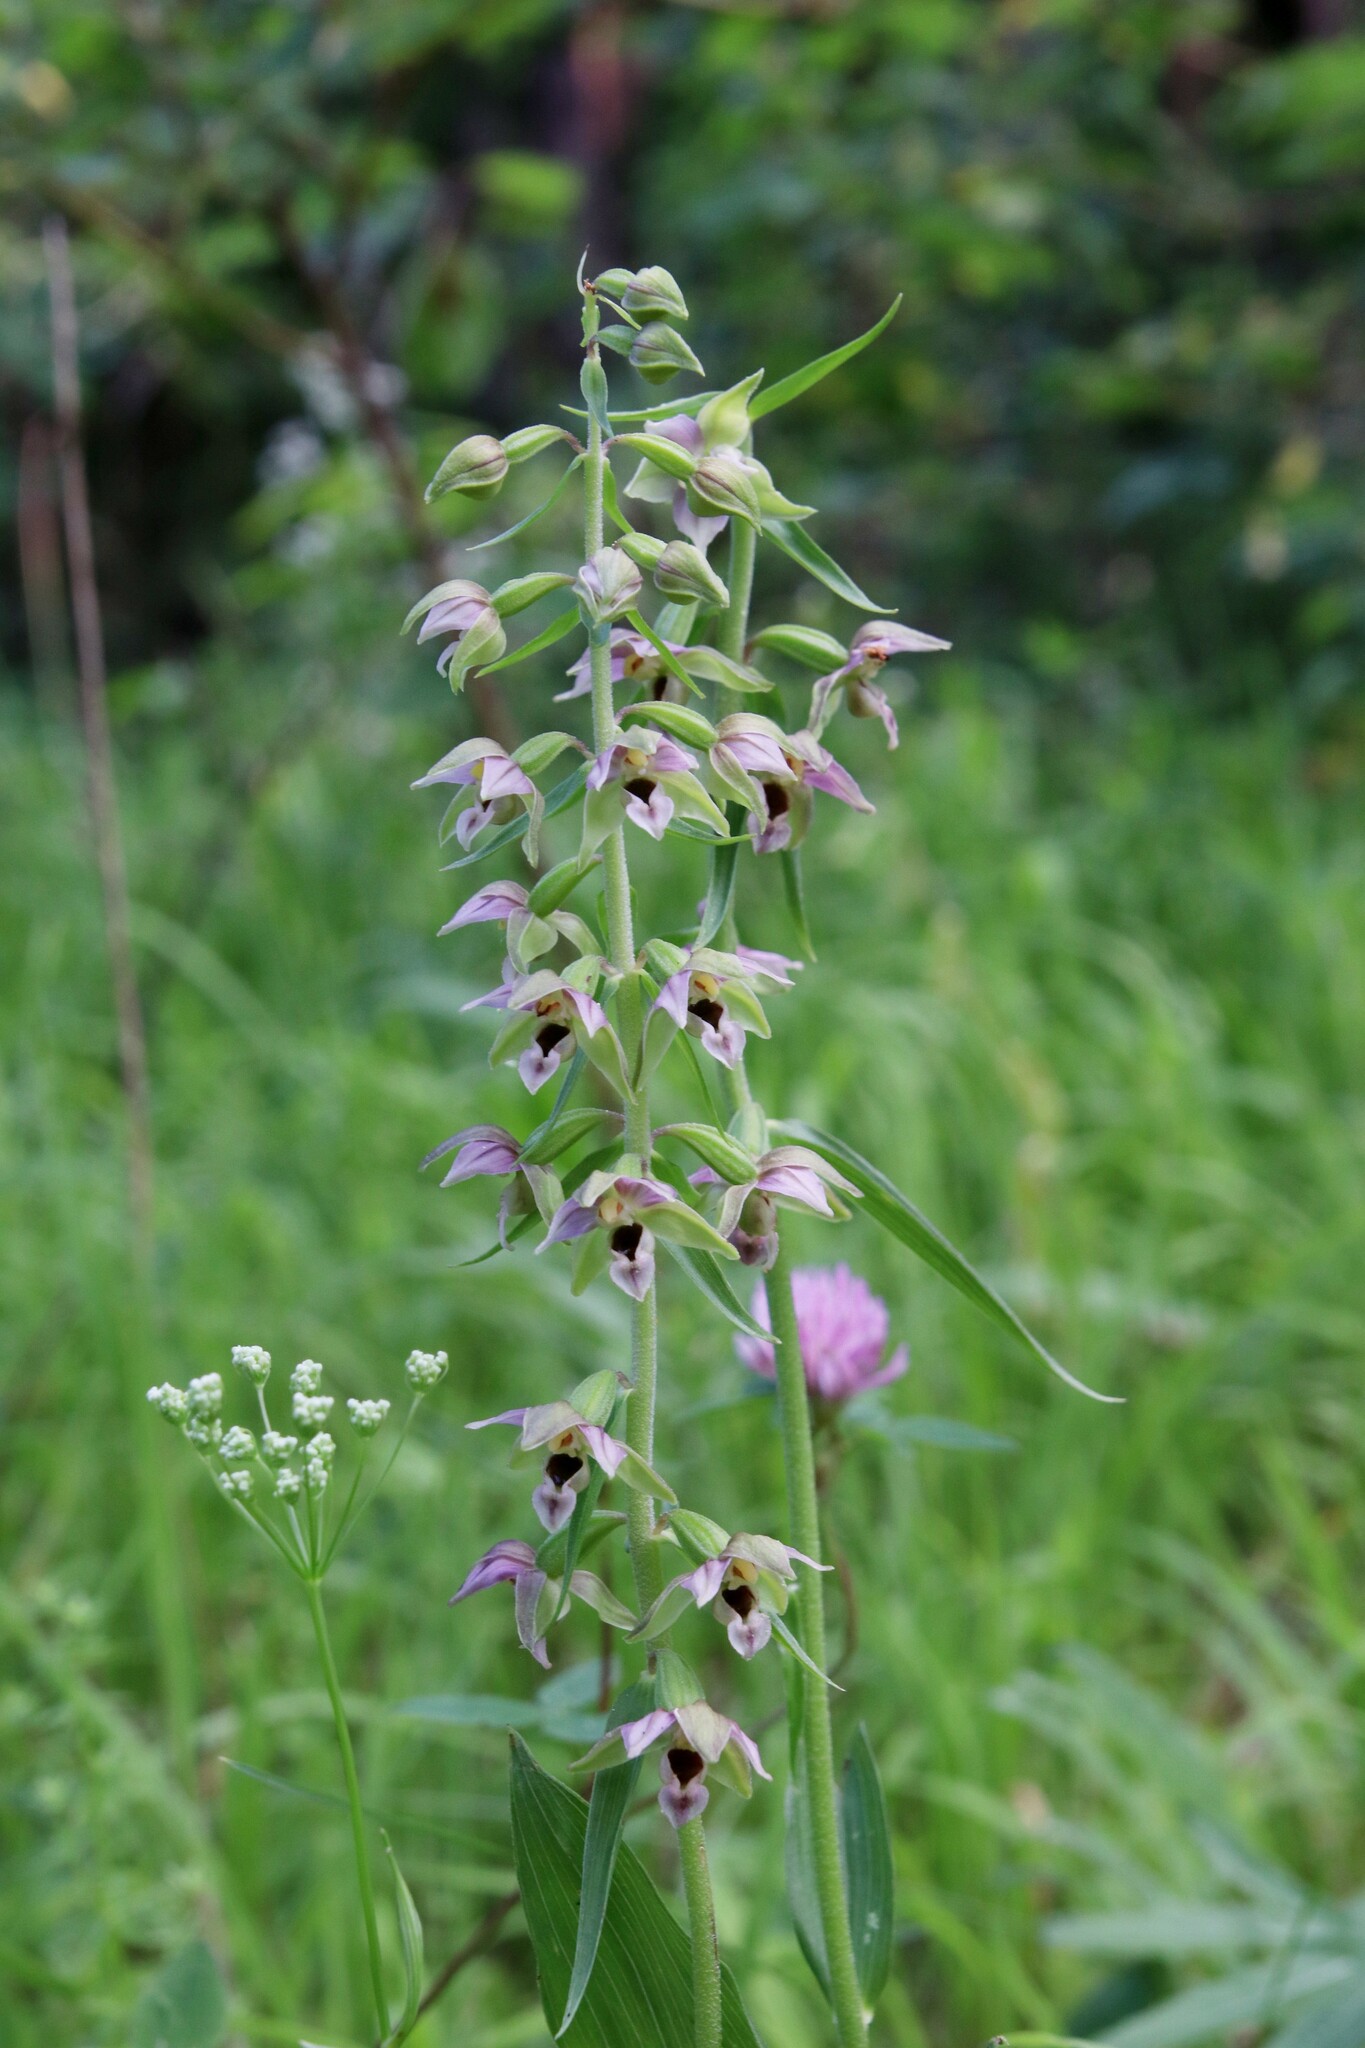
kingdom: Plantae
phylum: Tracheophyta
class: Liliopsida
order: Asparagales
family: Orchidaceae
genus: Epipactis
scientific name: Epipactis helleborine
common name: Broad-leaved helleborine
